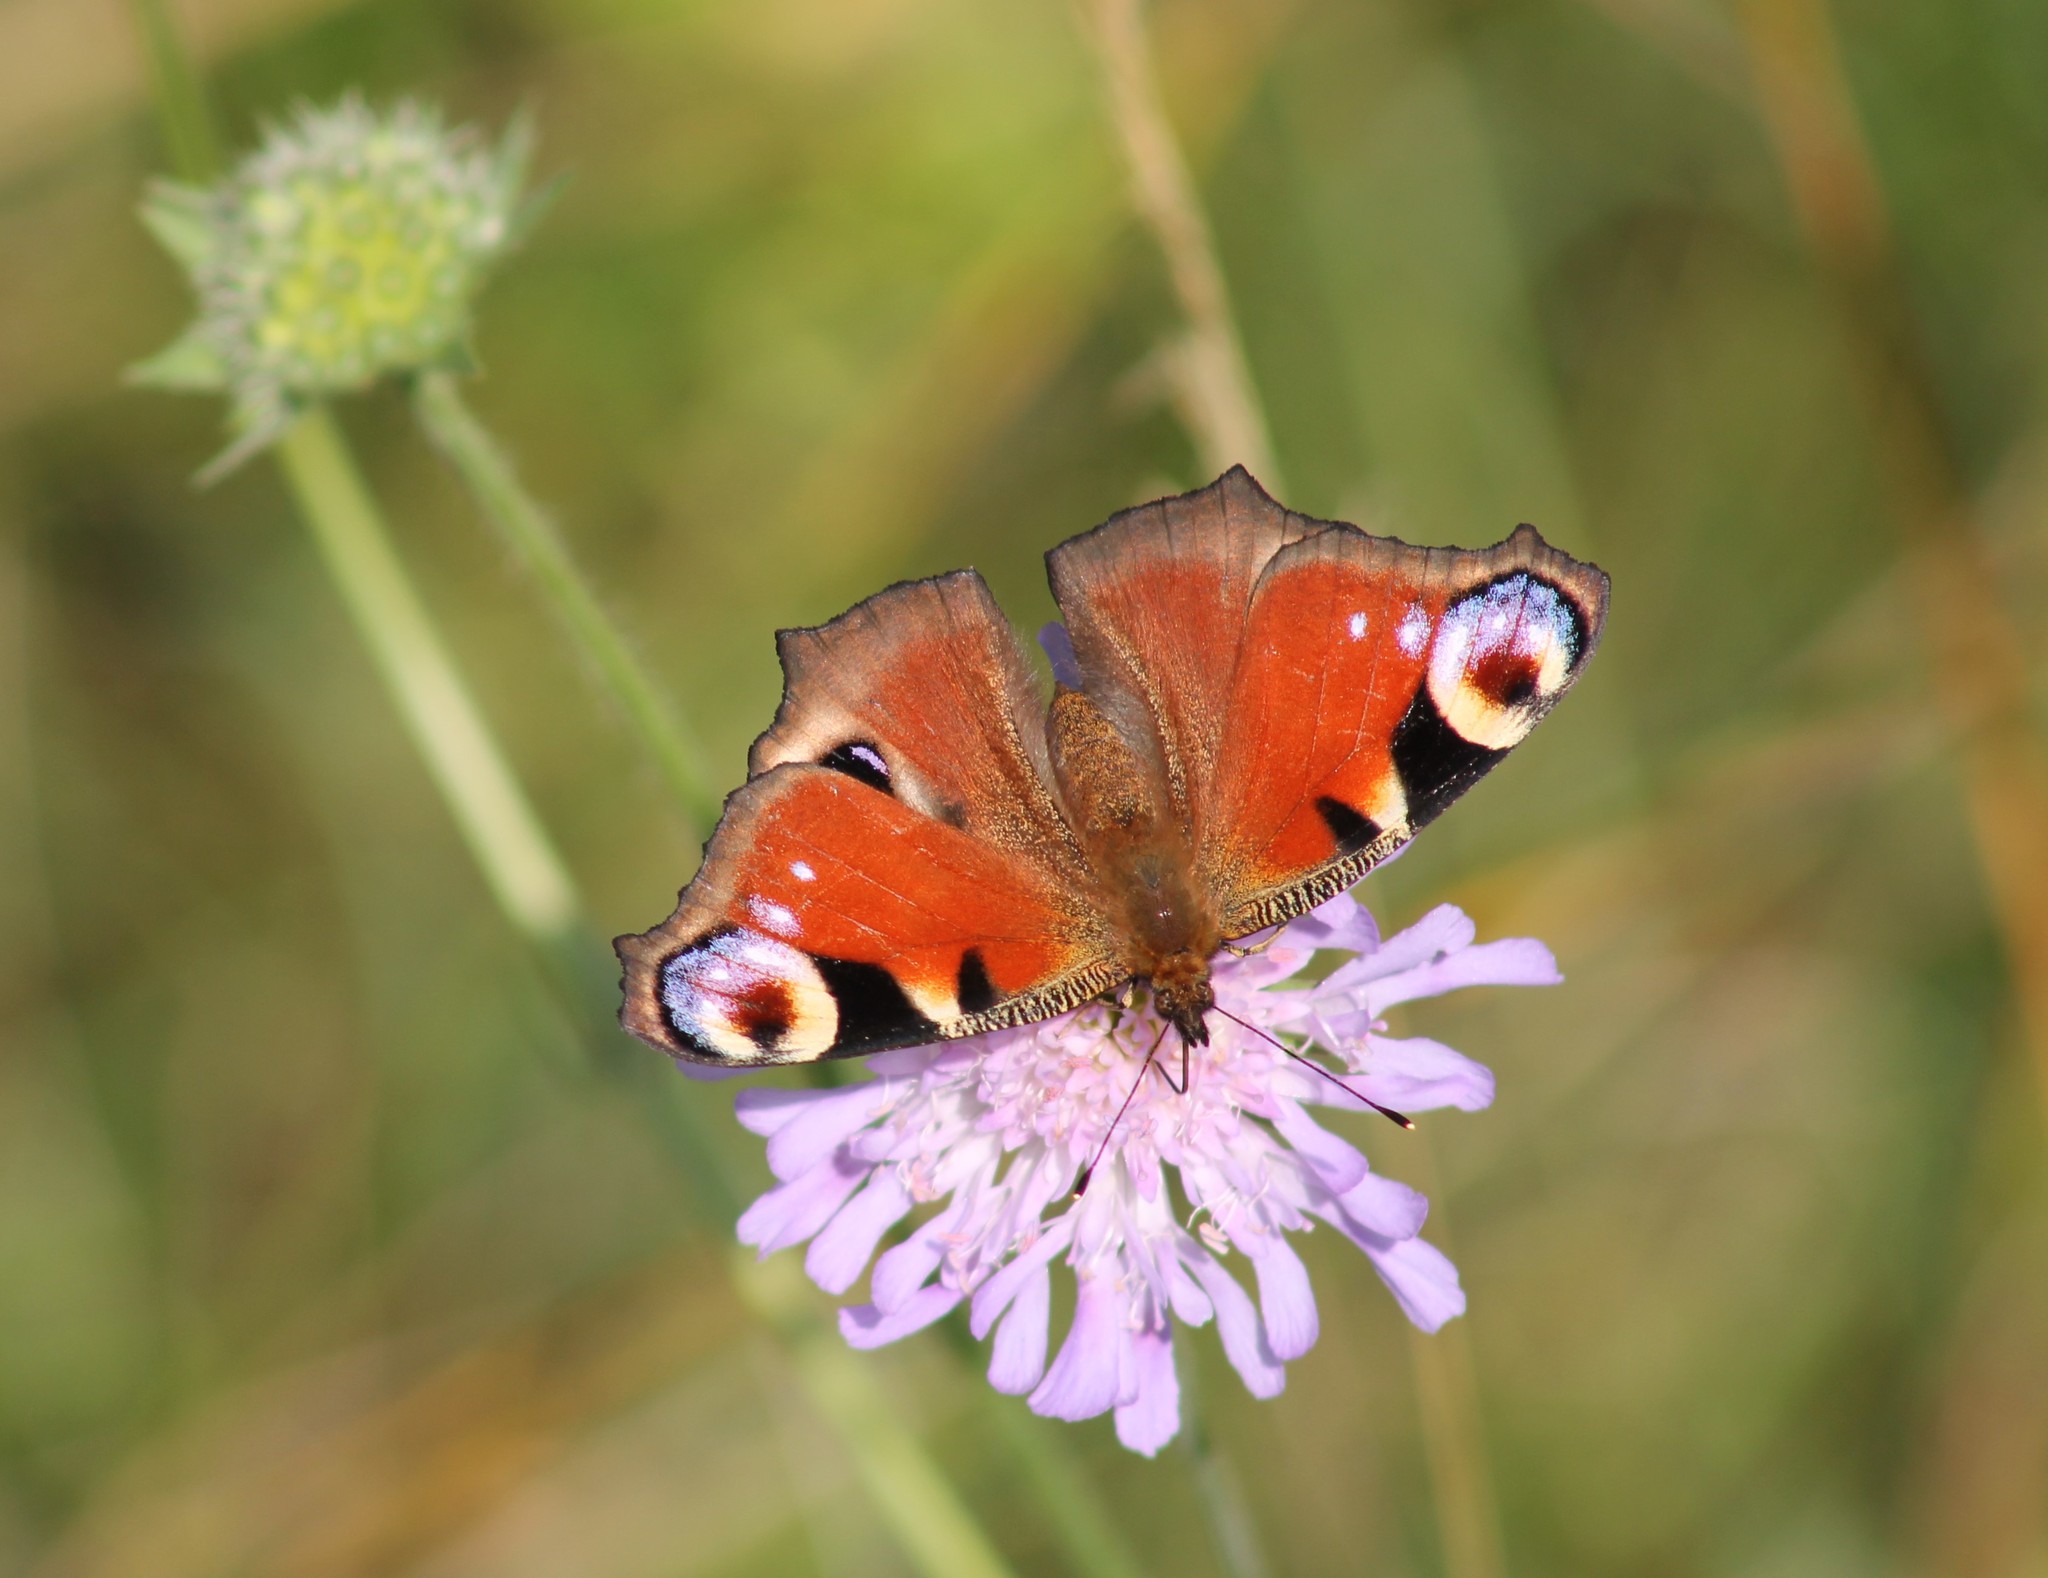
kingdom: Animalia
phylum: Arthropoda
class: Insecta
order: Lepidoptera
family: Nymphalidae
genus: Aglais
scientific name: Aglais io
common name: Peacock
